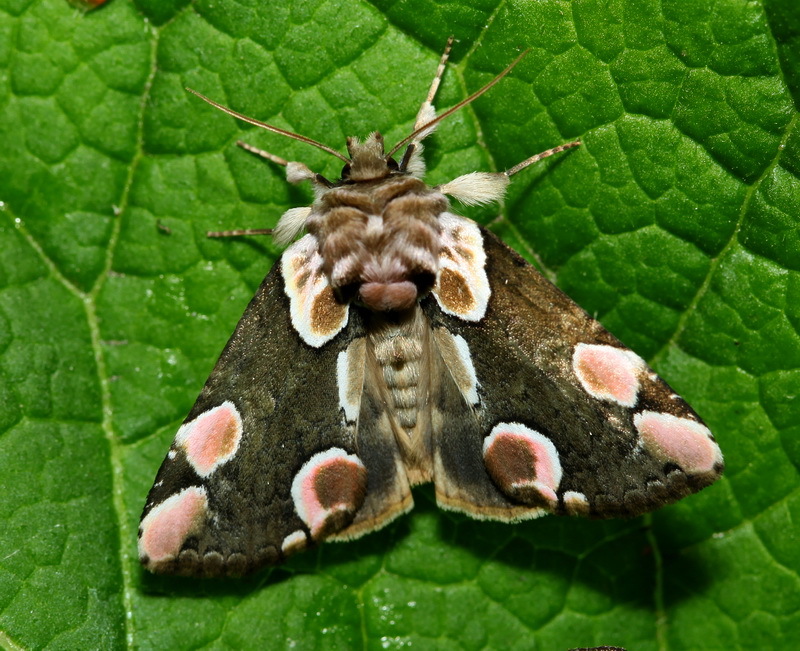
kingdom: Animalia
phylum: Arthropoda
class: Insecta
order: Lepidoptera
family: Drepanidae
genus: Thyatira
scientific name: Thyatira batis
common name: Peach blossom
